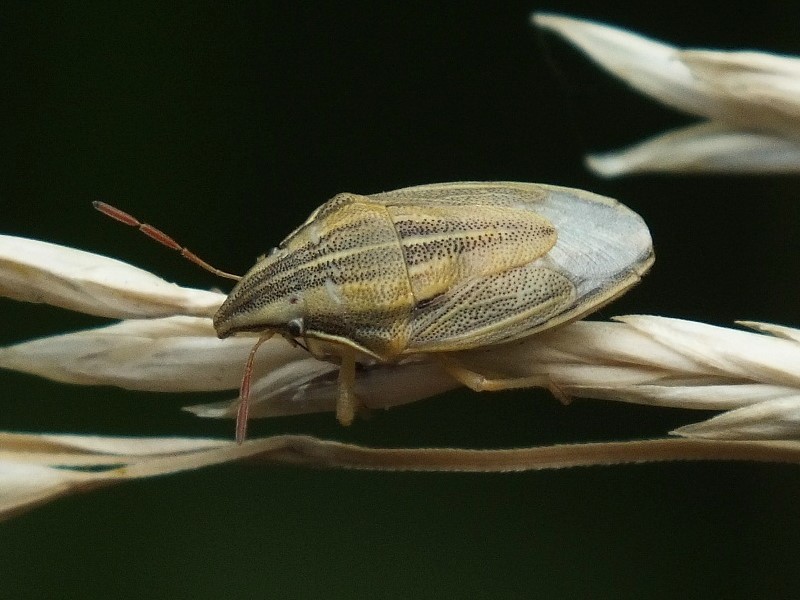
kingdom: Animalia
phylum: Arthropoda
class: Insecta
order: Hemiptera
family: Pentatomidae
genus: Aelia
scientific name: Aelia acuminata
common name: Bishop's mitre
